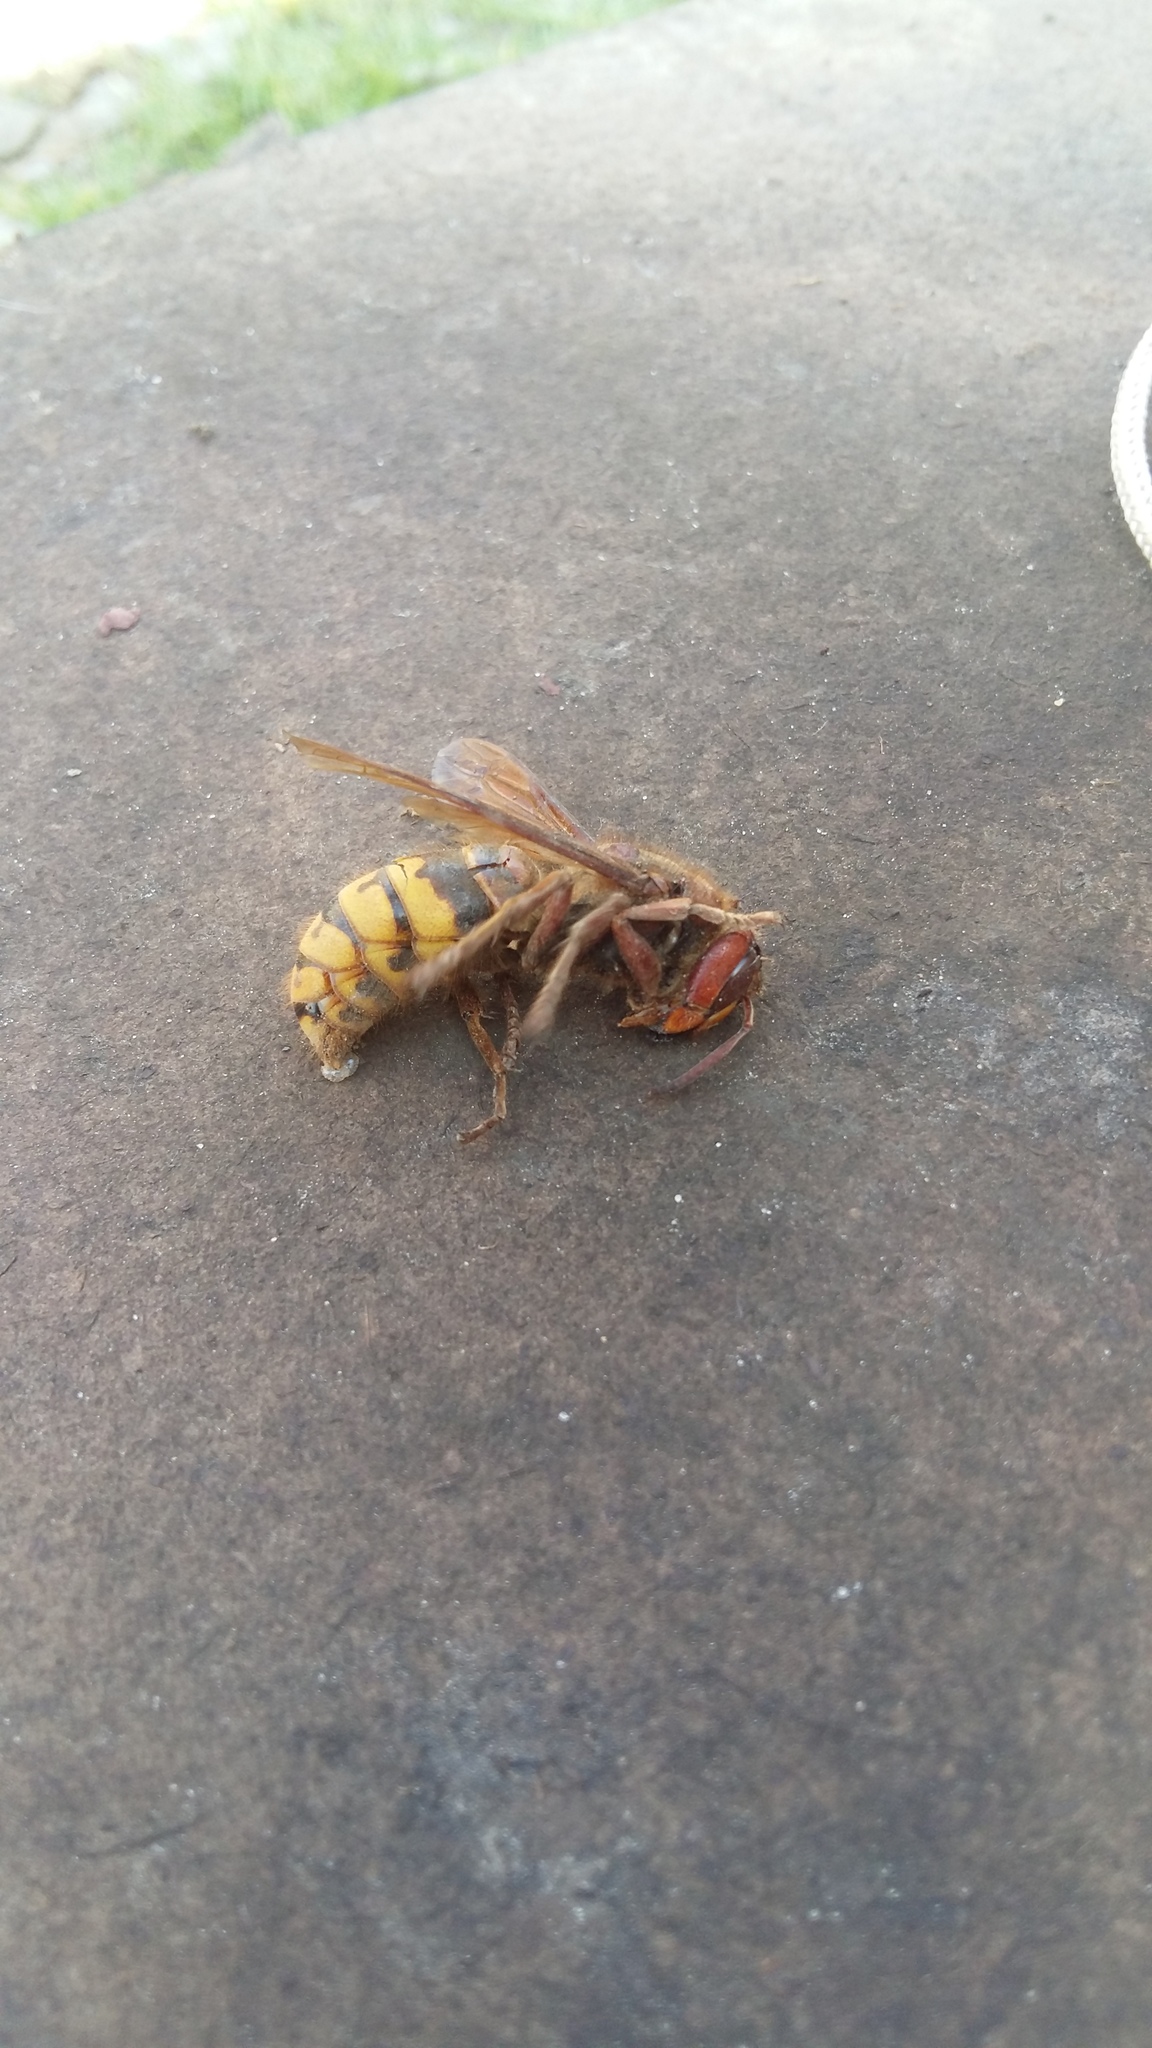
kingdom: Animalia
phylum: Arthropoda
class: Insecta
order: Hymenoptera
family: Vespidae
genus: Vespa
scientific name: Vespa crabro
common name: Hornet
